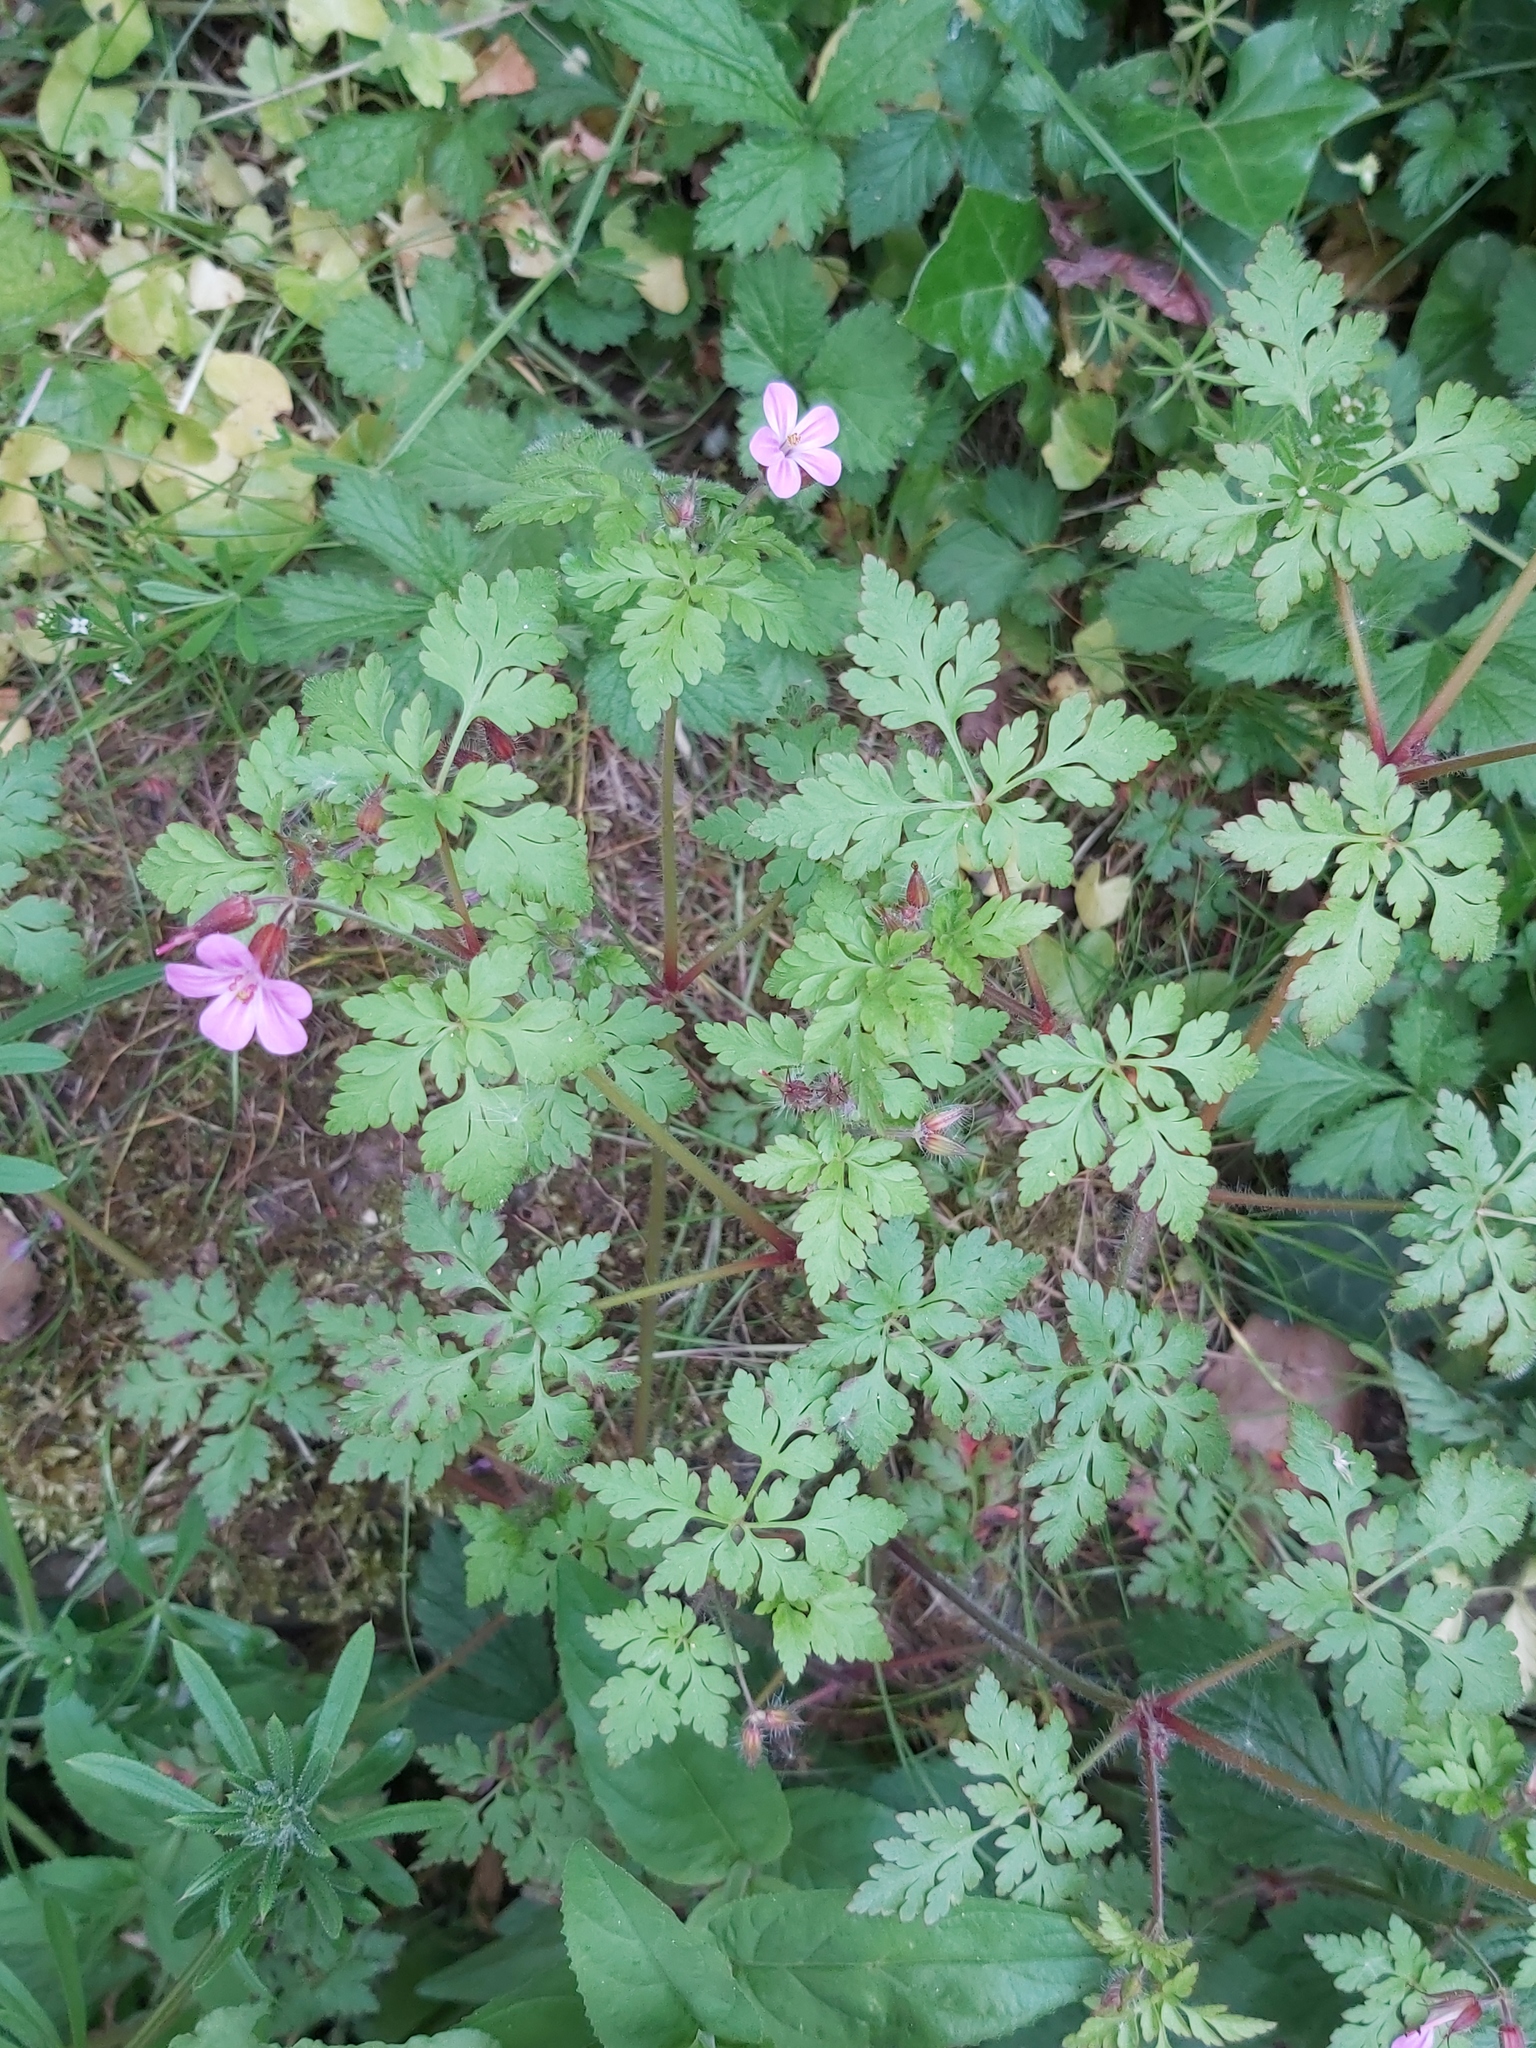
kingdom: Plantae
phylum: Tracheophyta
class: Magnoliopsida
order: Geraniales
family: Geraniaceae
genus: Geranium
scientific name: Geranium robertianum
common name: Herb-robert
